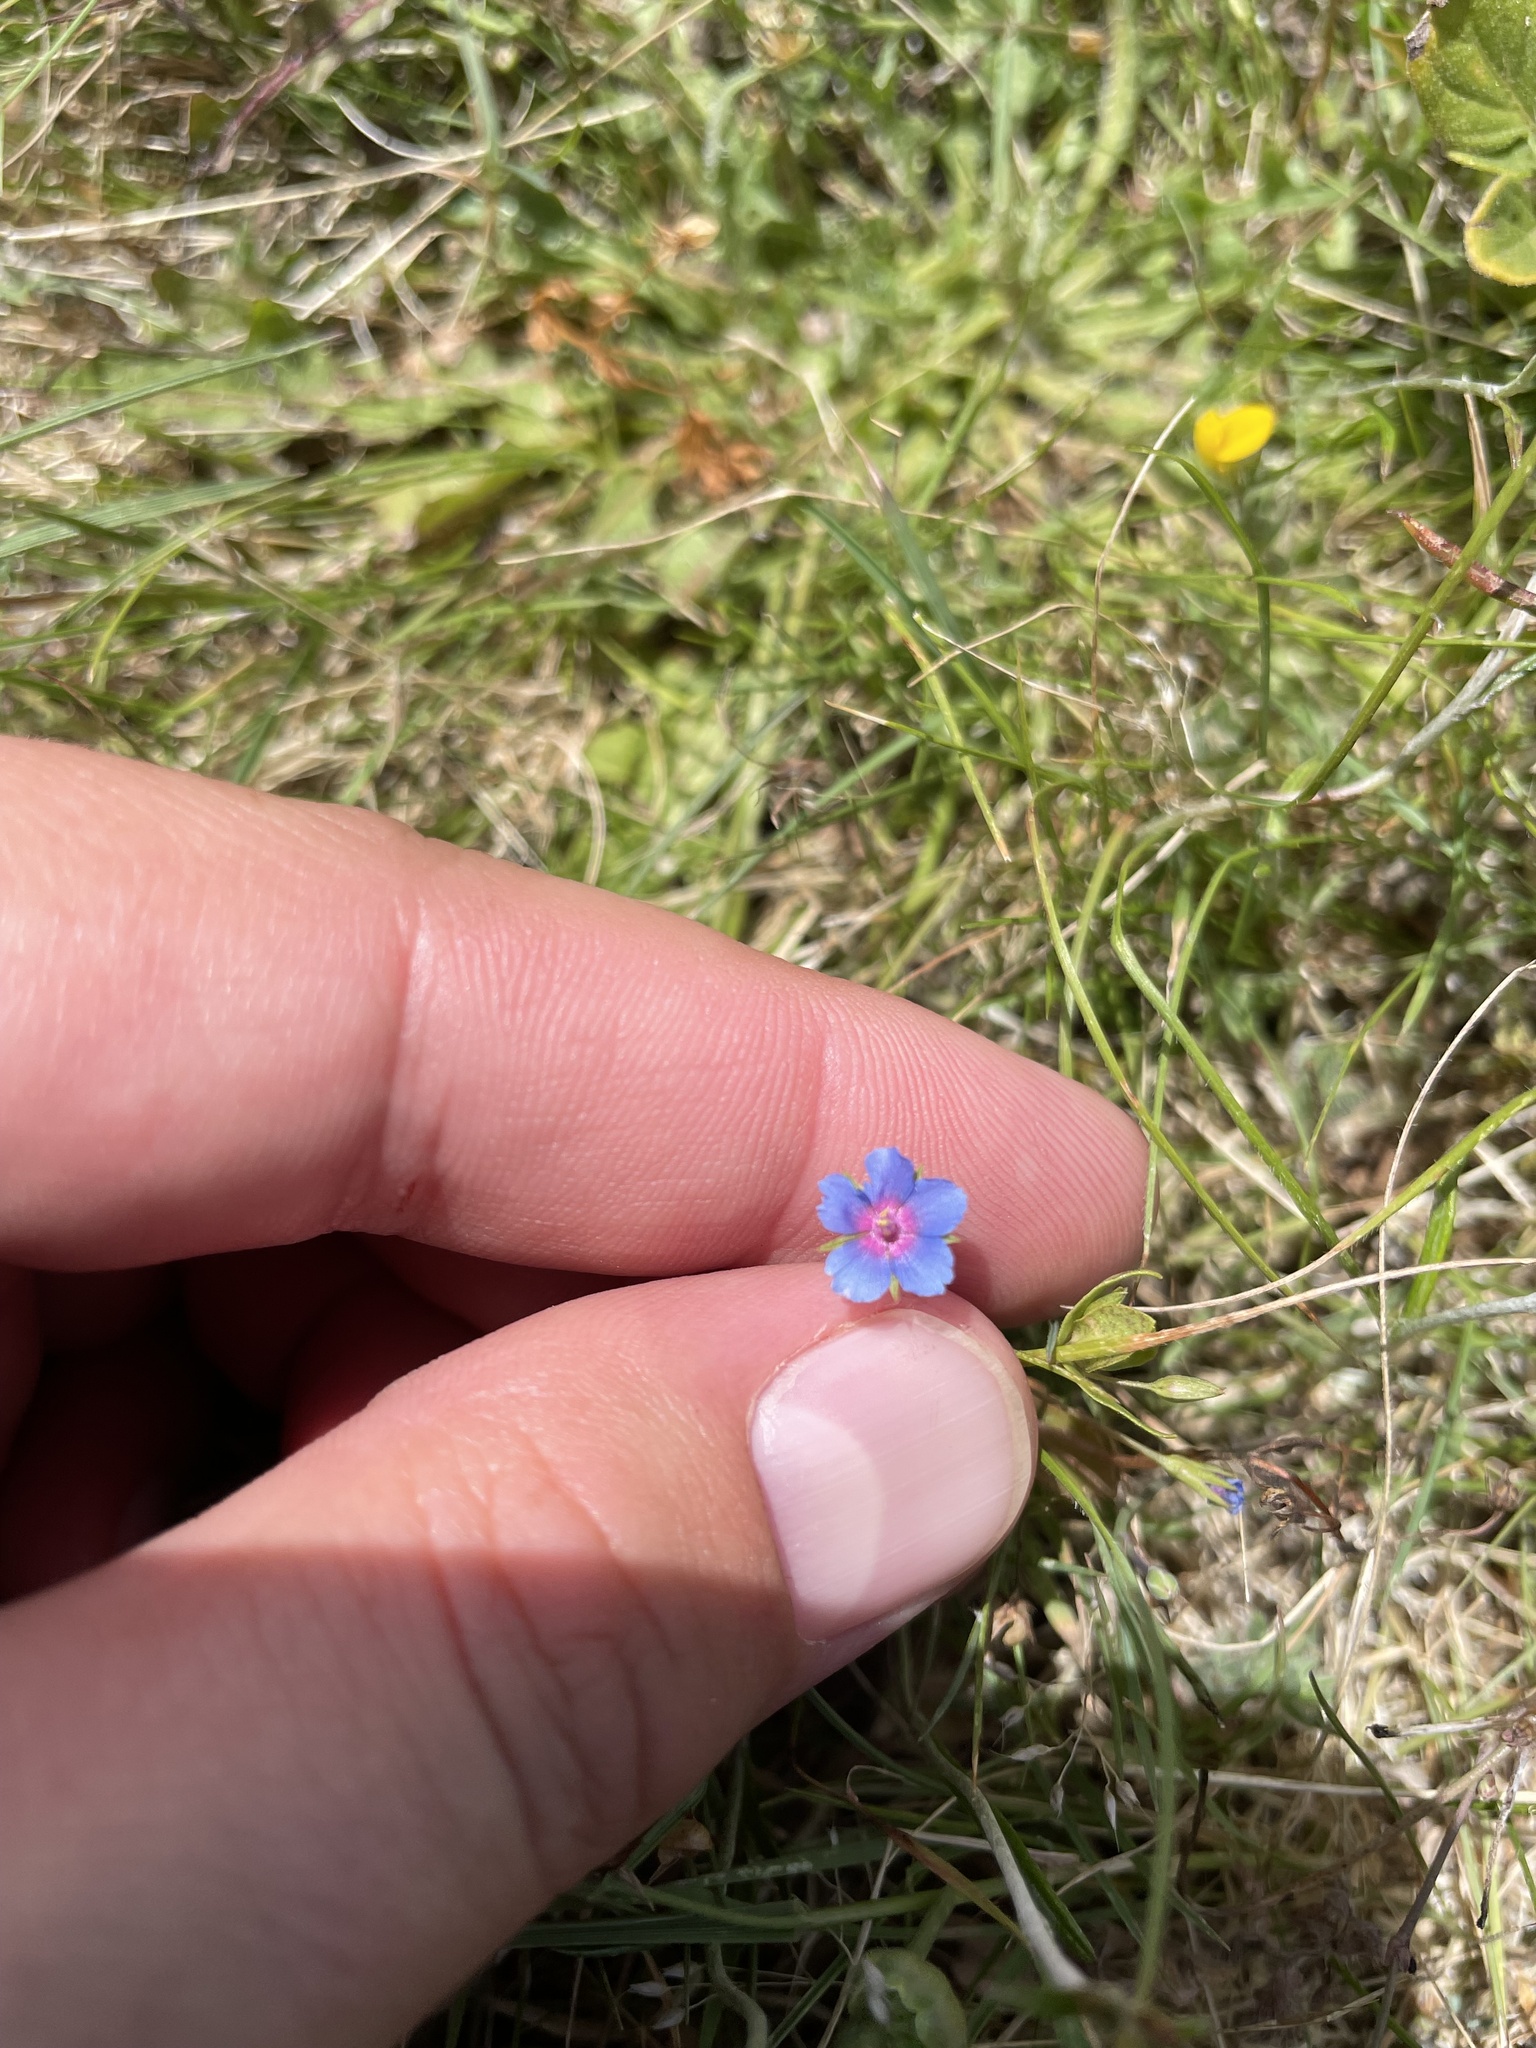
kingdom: Plantae
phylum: Tracheophyta
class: Magnoliopsida
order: Ericales
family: Primulaceae
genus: Lysimachia
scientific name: Lysimachia loeflingii
